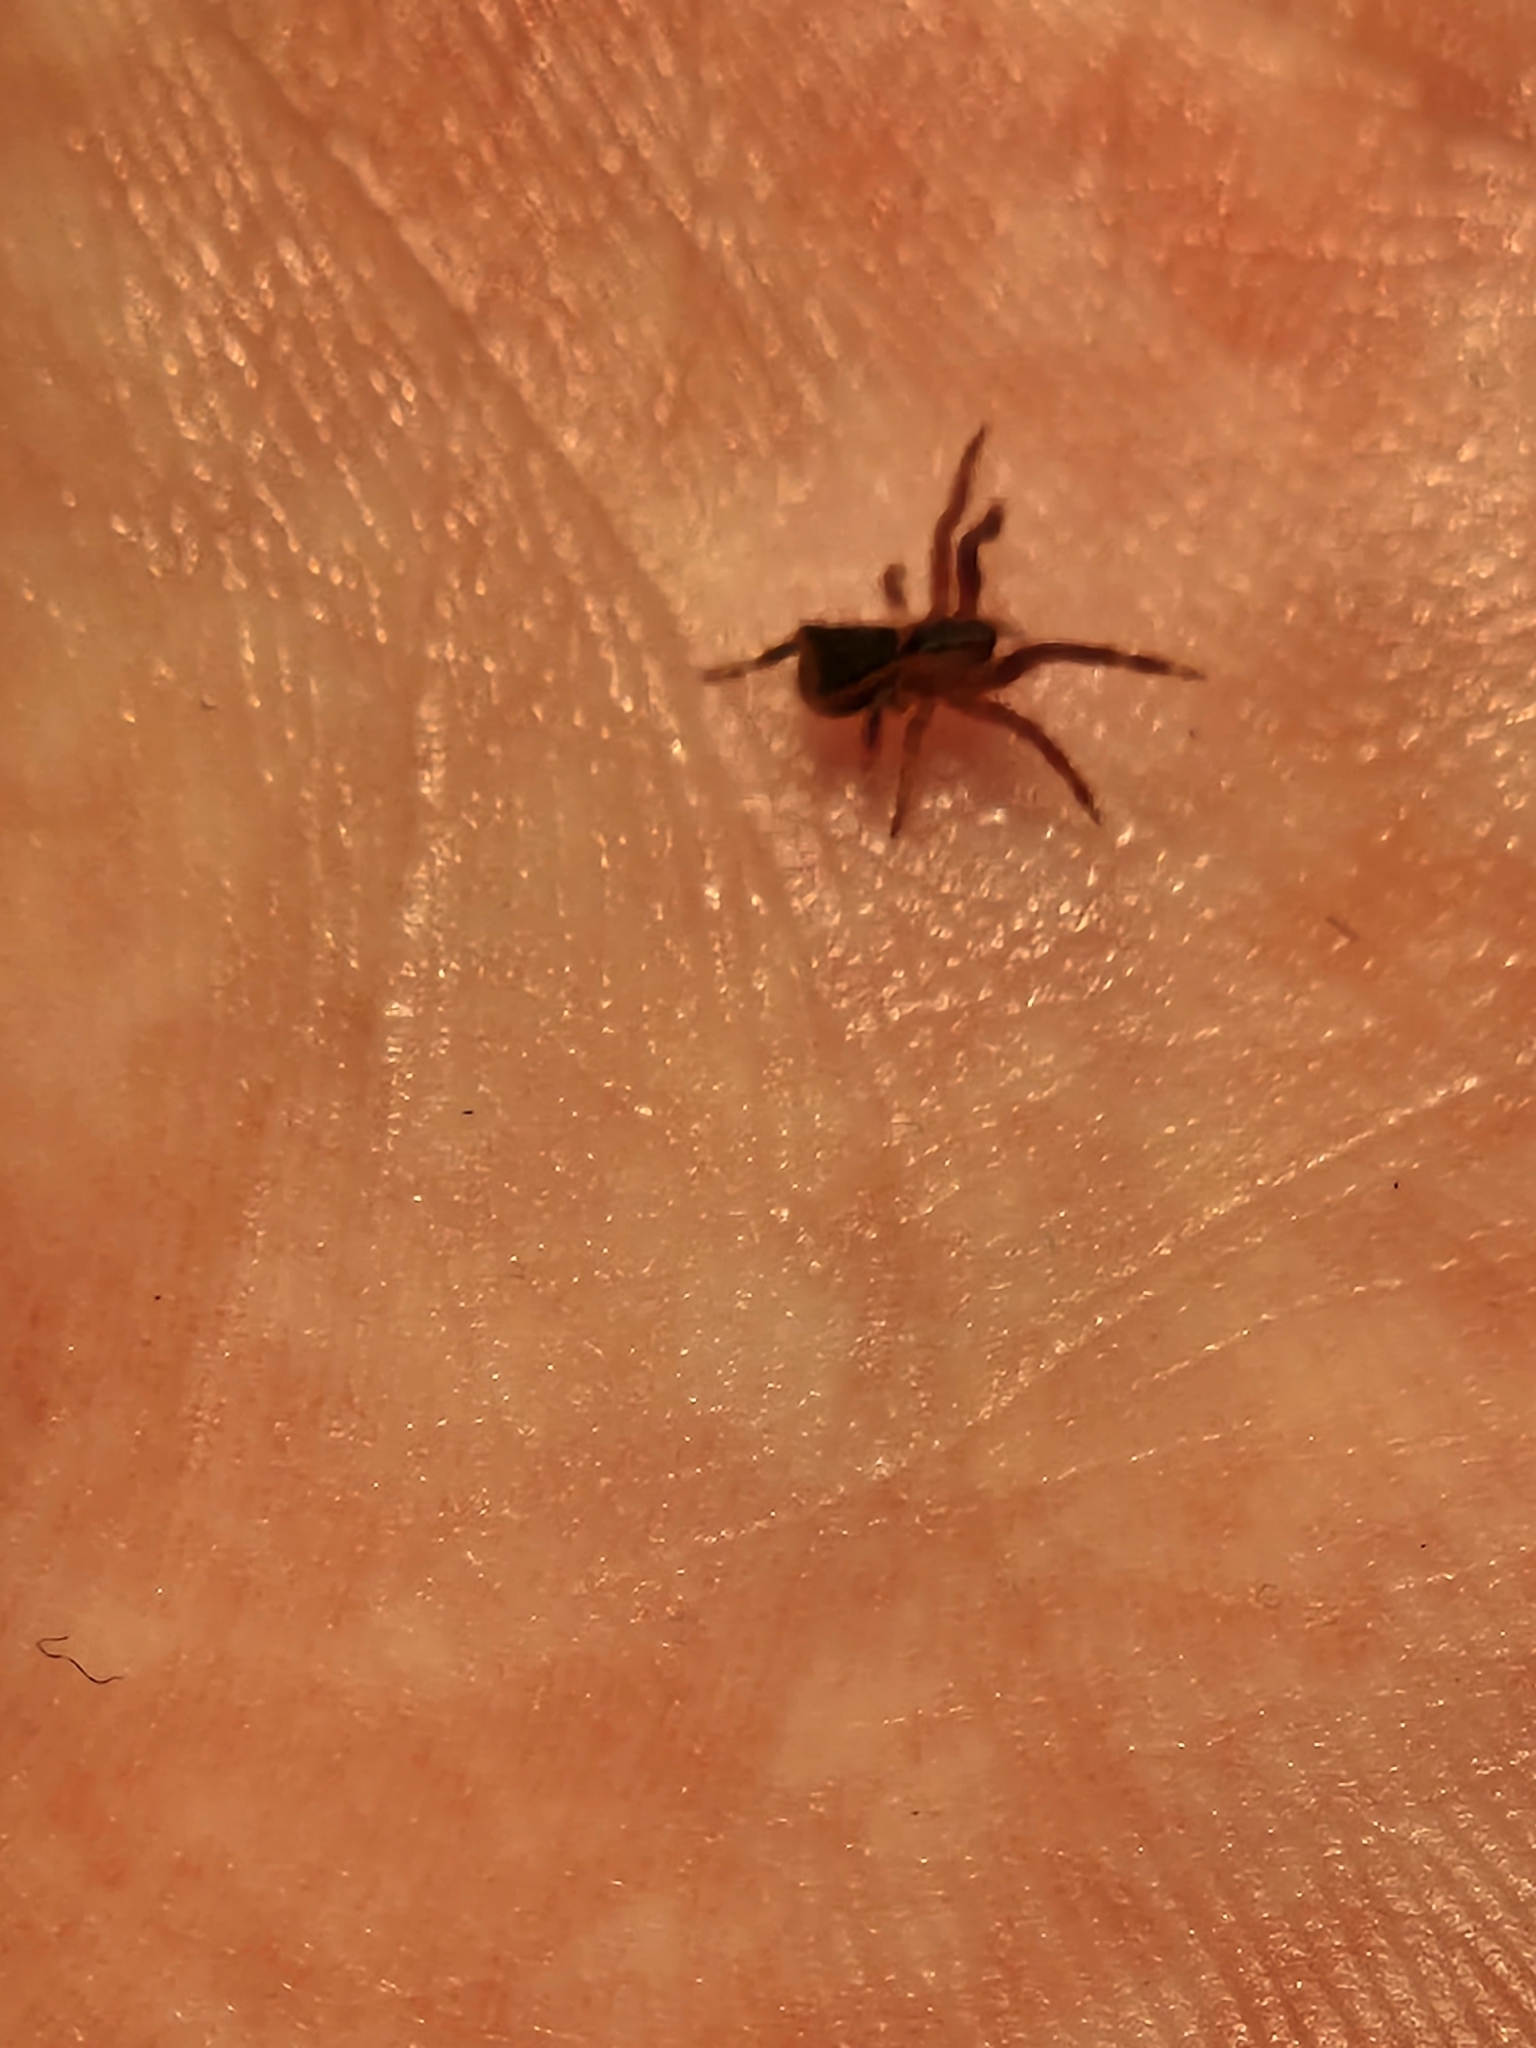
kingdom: Animalia
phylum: Arthropoda
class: Arachnida
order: Araneae
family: Thomisidae
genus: Sidymella
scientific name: Sidymella angularis
